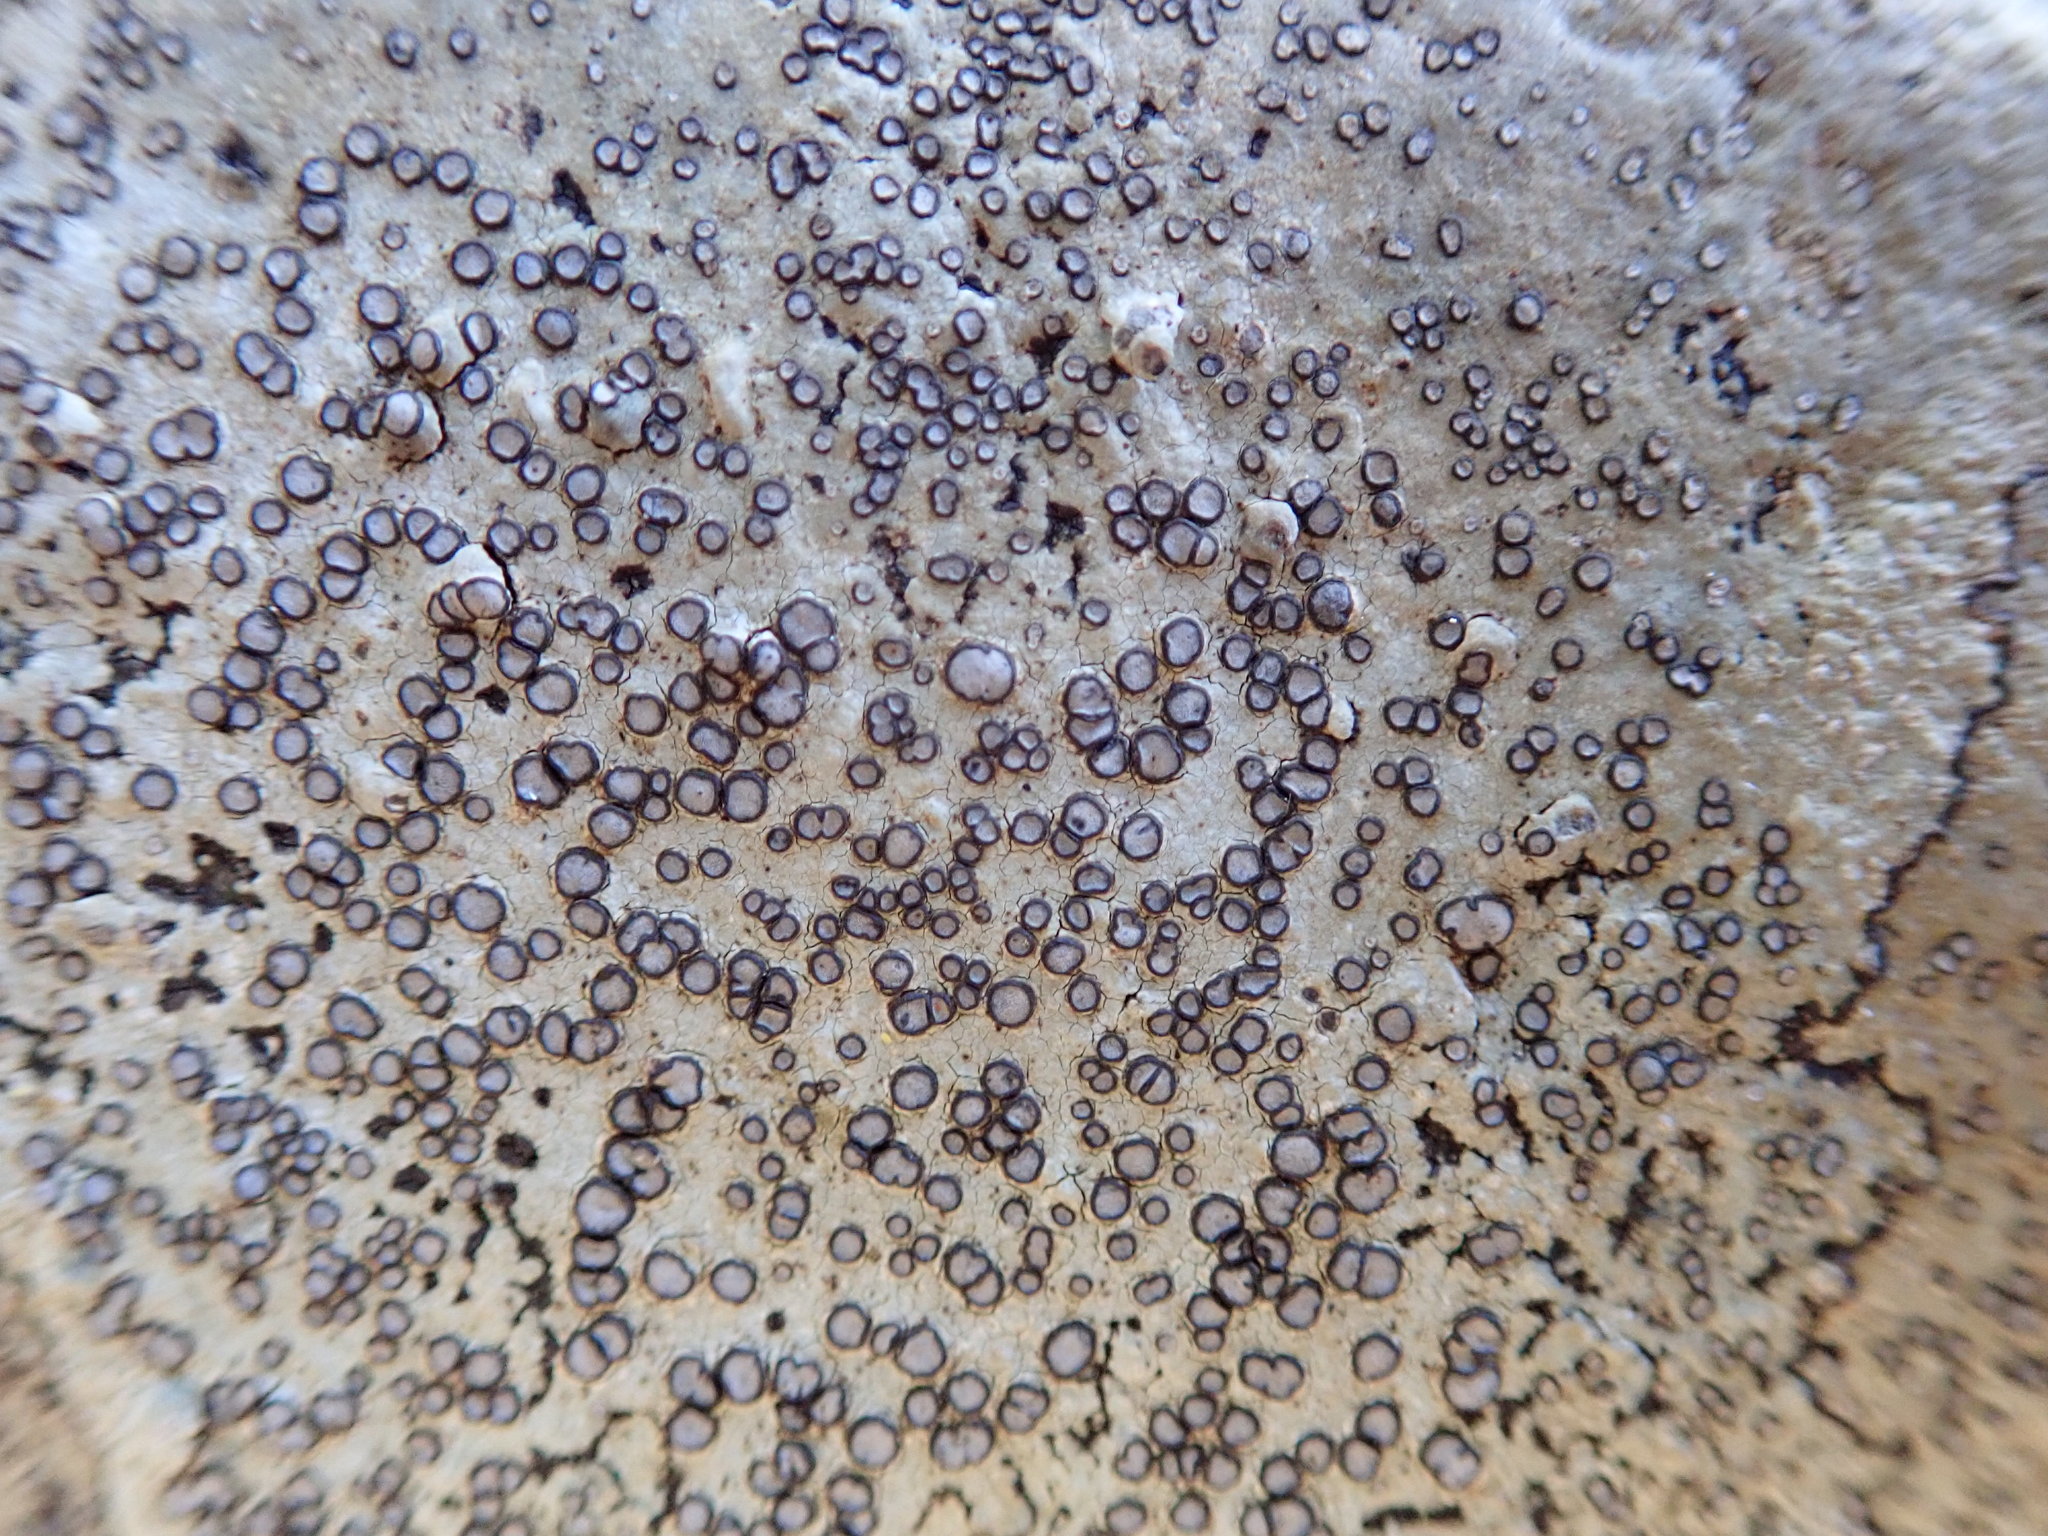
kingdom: Fungi
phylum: Ascomycota
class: Lecanoromycetes
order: Lecideales
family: Lecideaceae
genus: Porpidia
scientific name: Porpidia albocaerulescens
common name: Smokey-eyed boulder lichen
